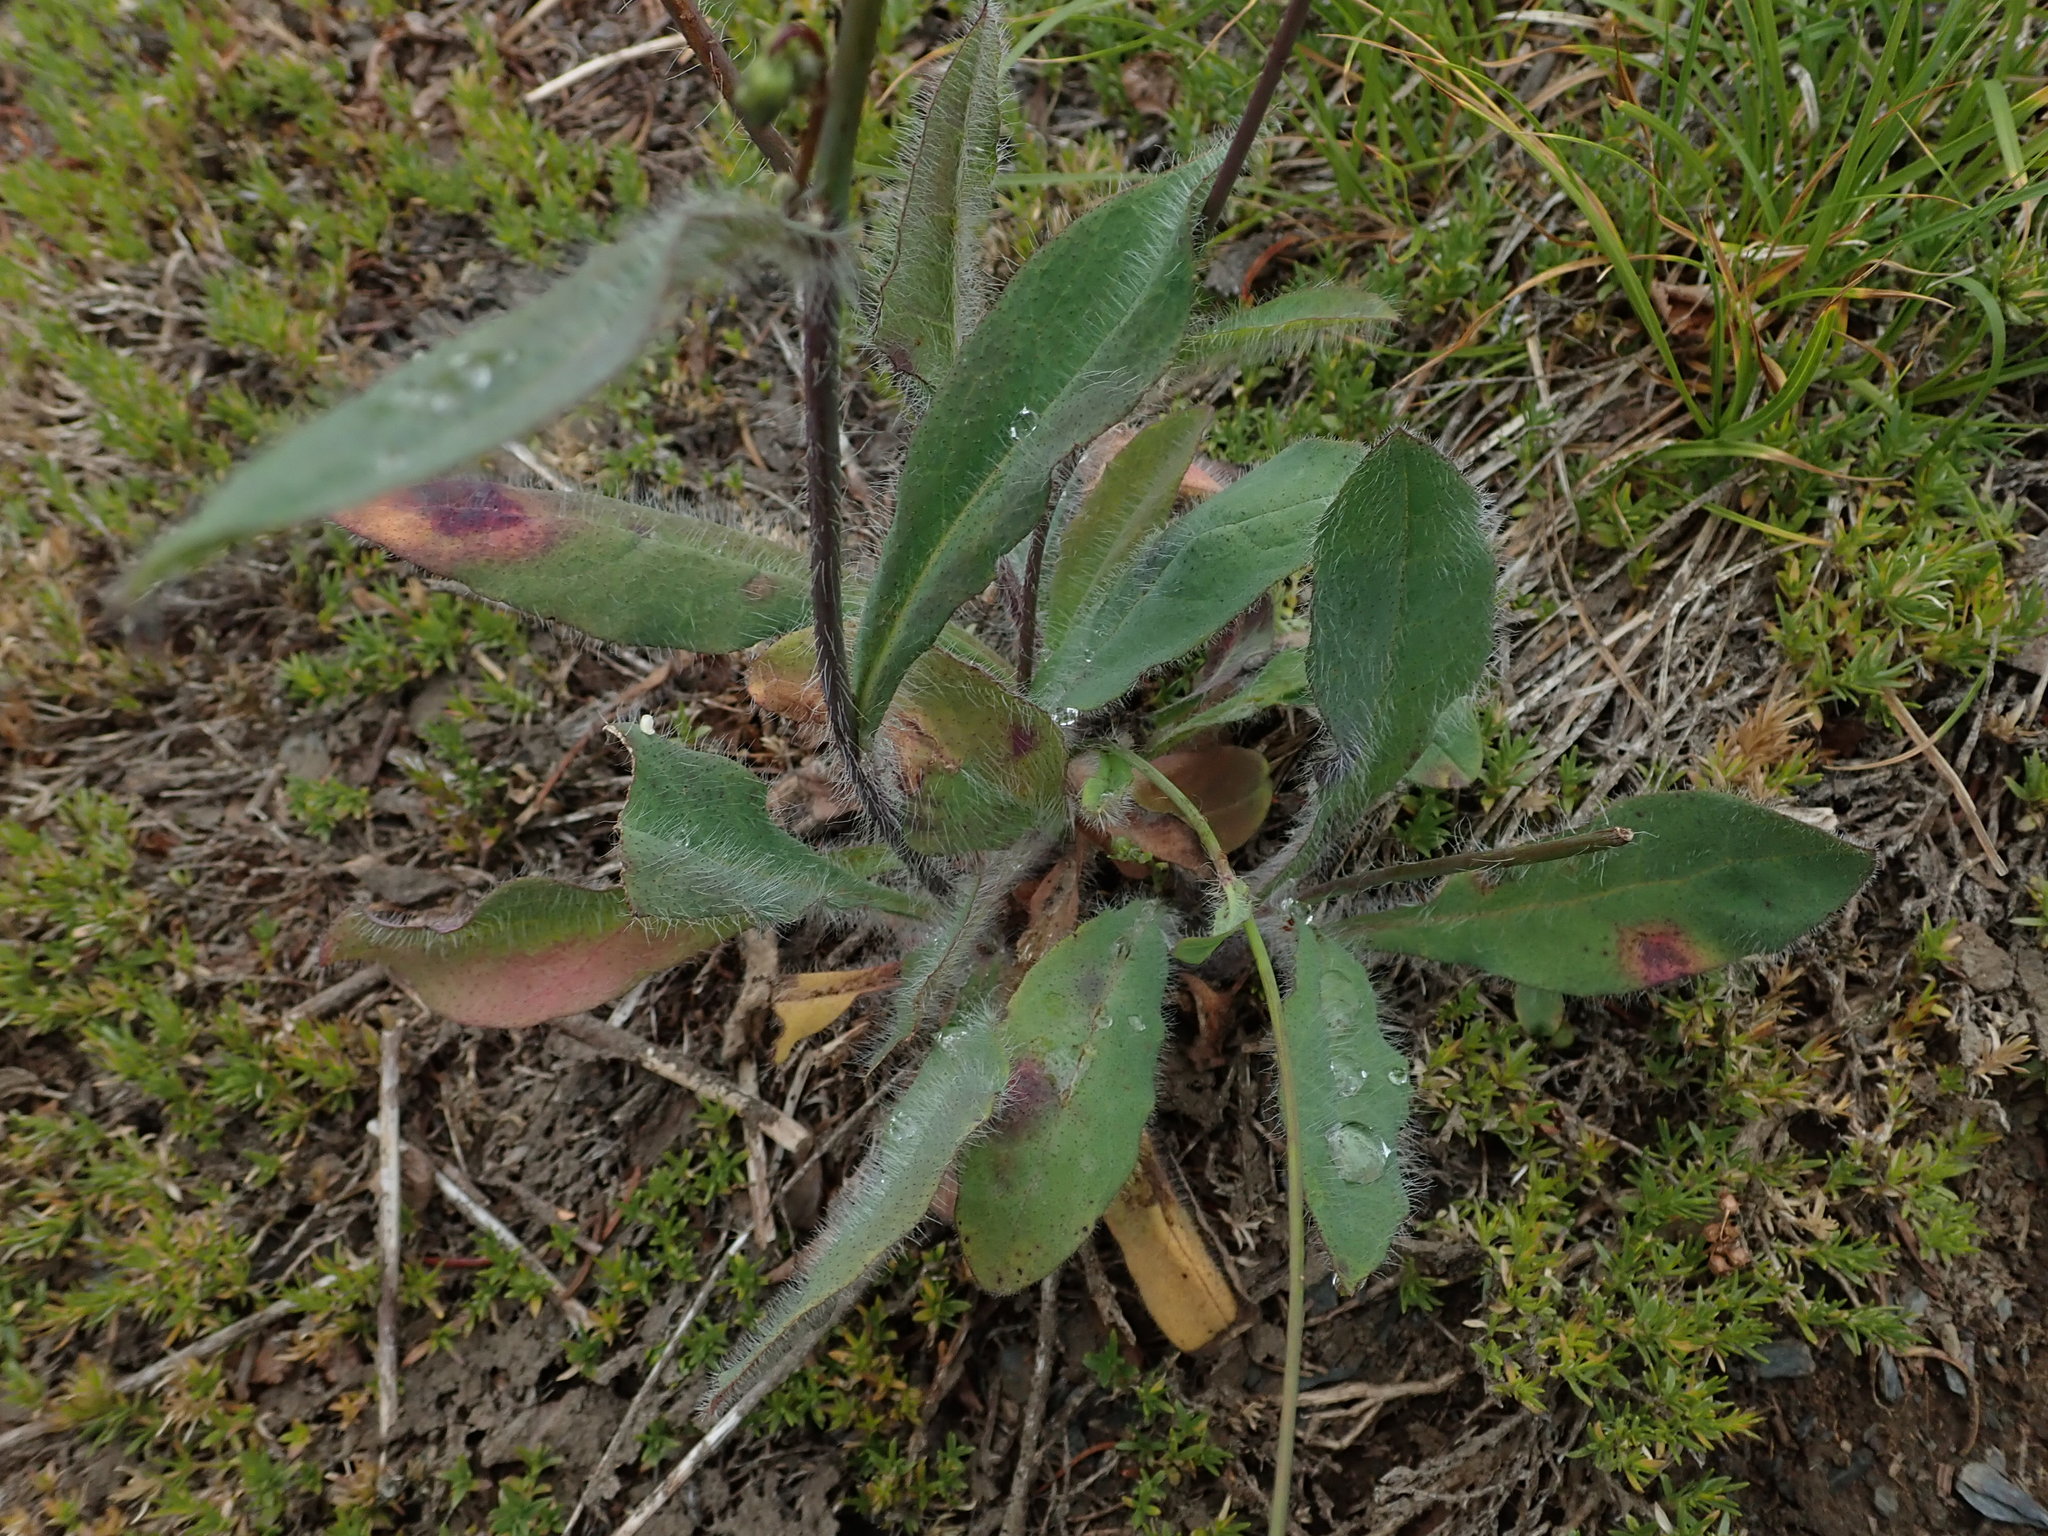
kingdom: Plantae
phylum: Tracheophyta
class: Magnoliopsida
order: Asterales
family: Asteraceae
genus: Hieracium
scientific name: Hieracium albiflorum
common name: White hawkweed
